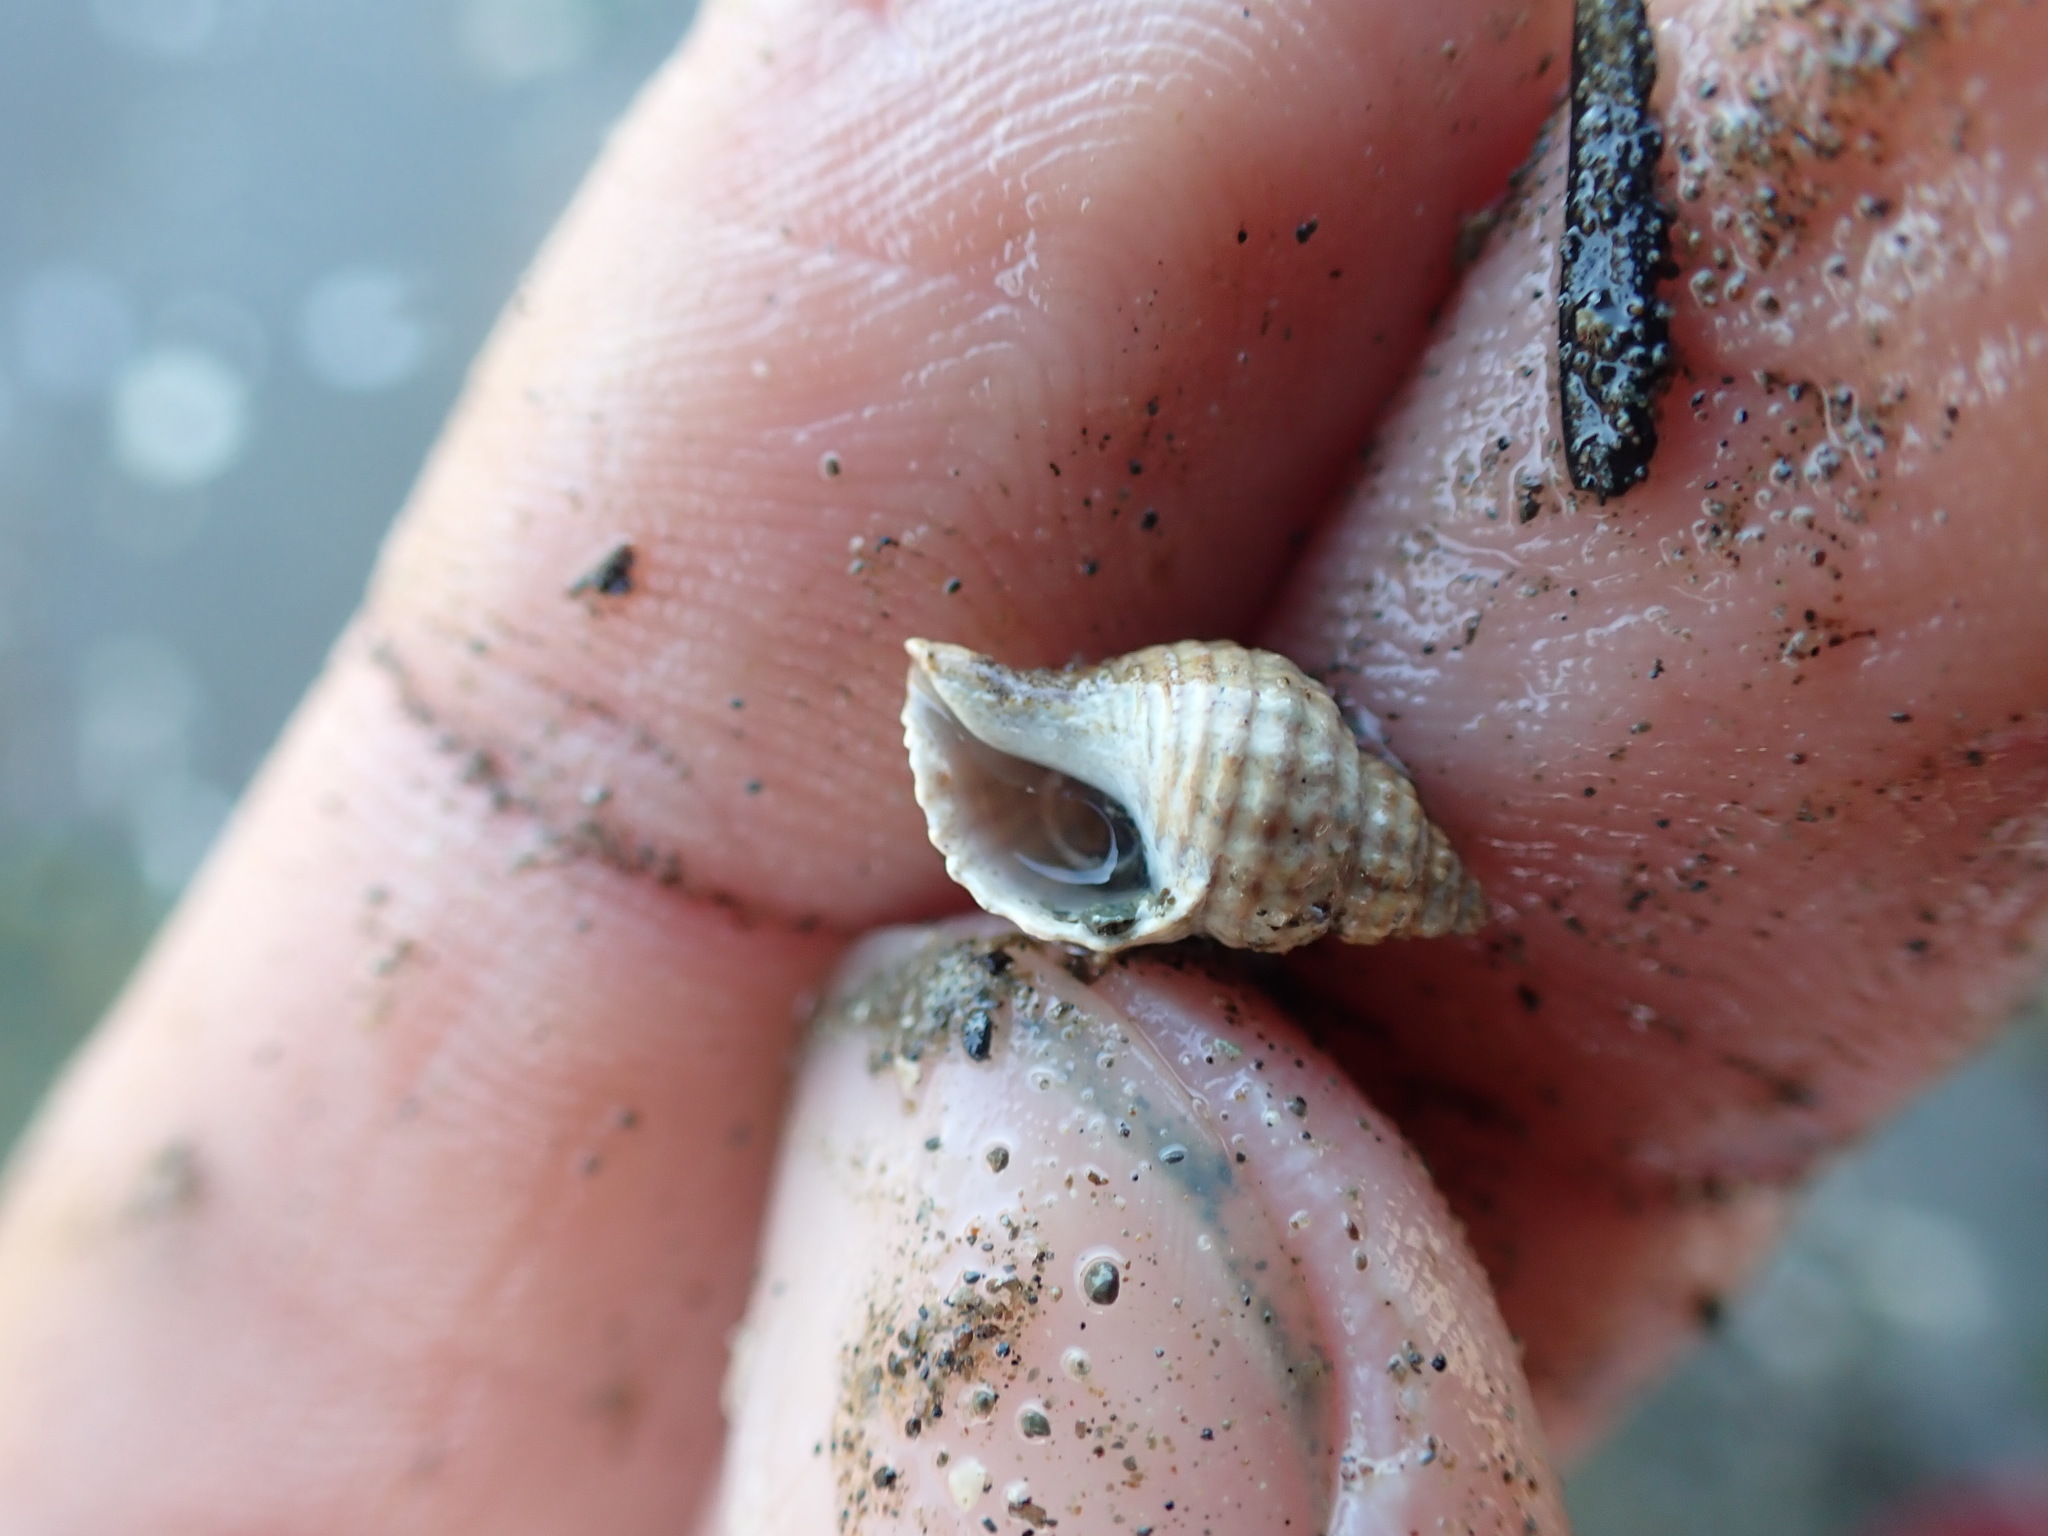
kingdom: Animalia
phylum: Mollusca
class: Gastropoda
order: Neogastropoda
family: Muricidae
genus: Xymene
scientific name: Xymene plebeius
